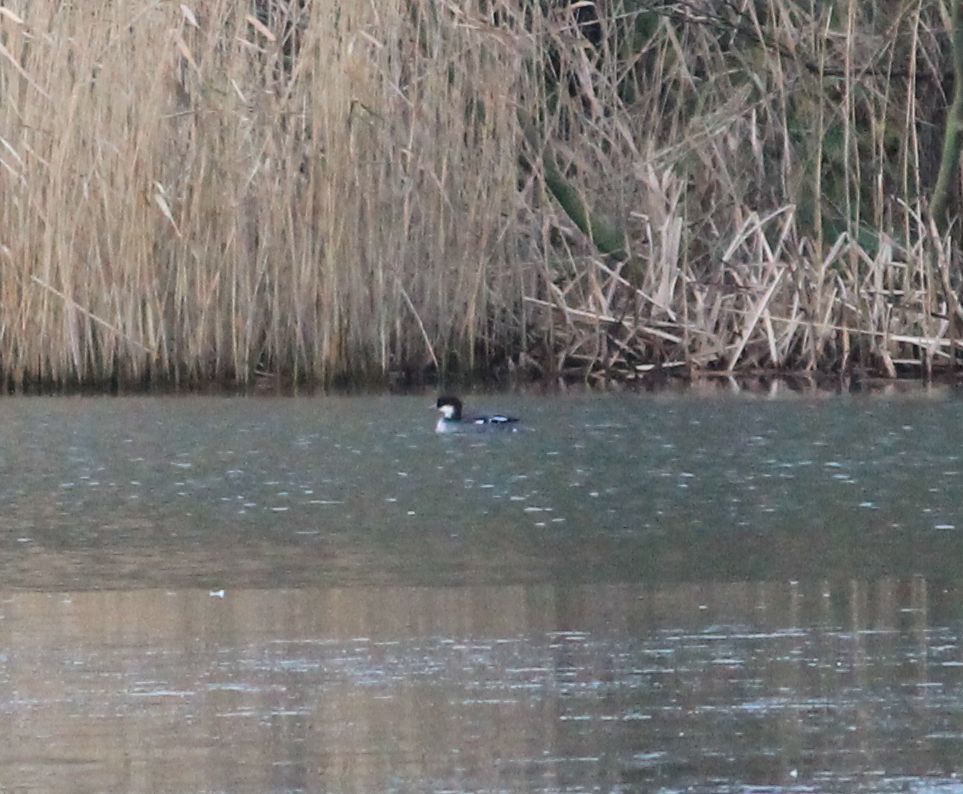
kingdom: Animalia
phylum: Chordata
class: Aves
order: Anseriformes
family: Anatidae
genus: Mergellus
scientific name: Mergellus albellus
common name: Smew
